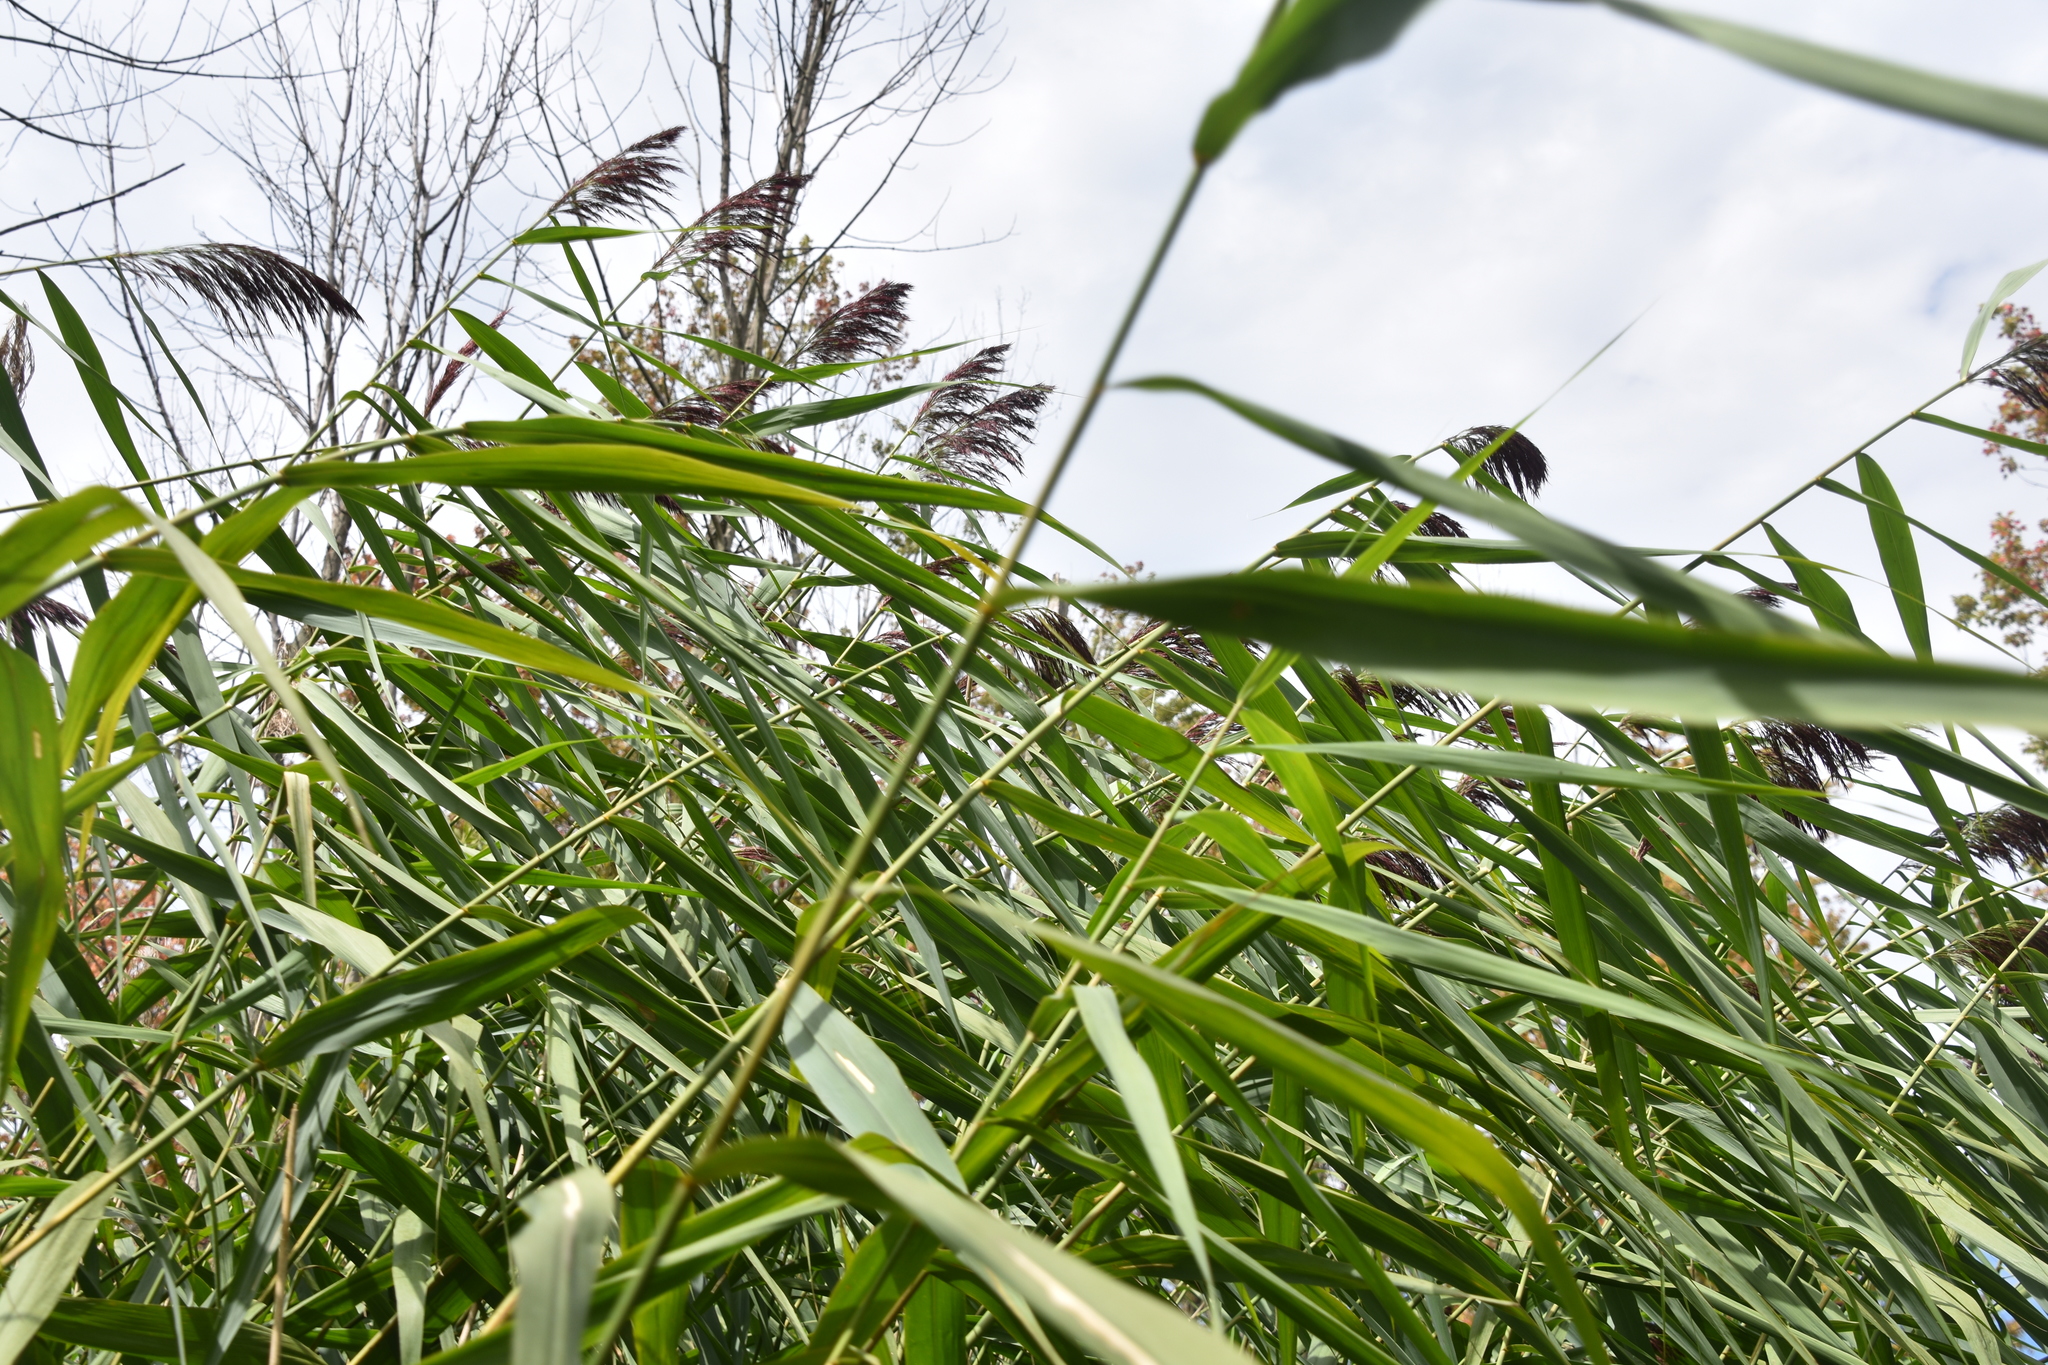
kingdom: Plantae
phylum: Tracheophyta
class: Liliopsida
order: Poales
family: Poaceae
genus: Phragmites
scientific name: Phragmites australis
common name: Common reed
